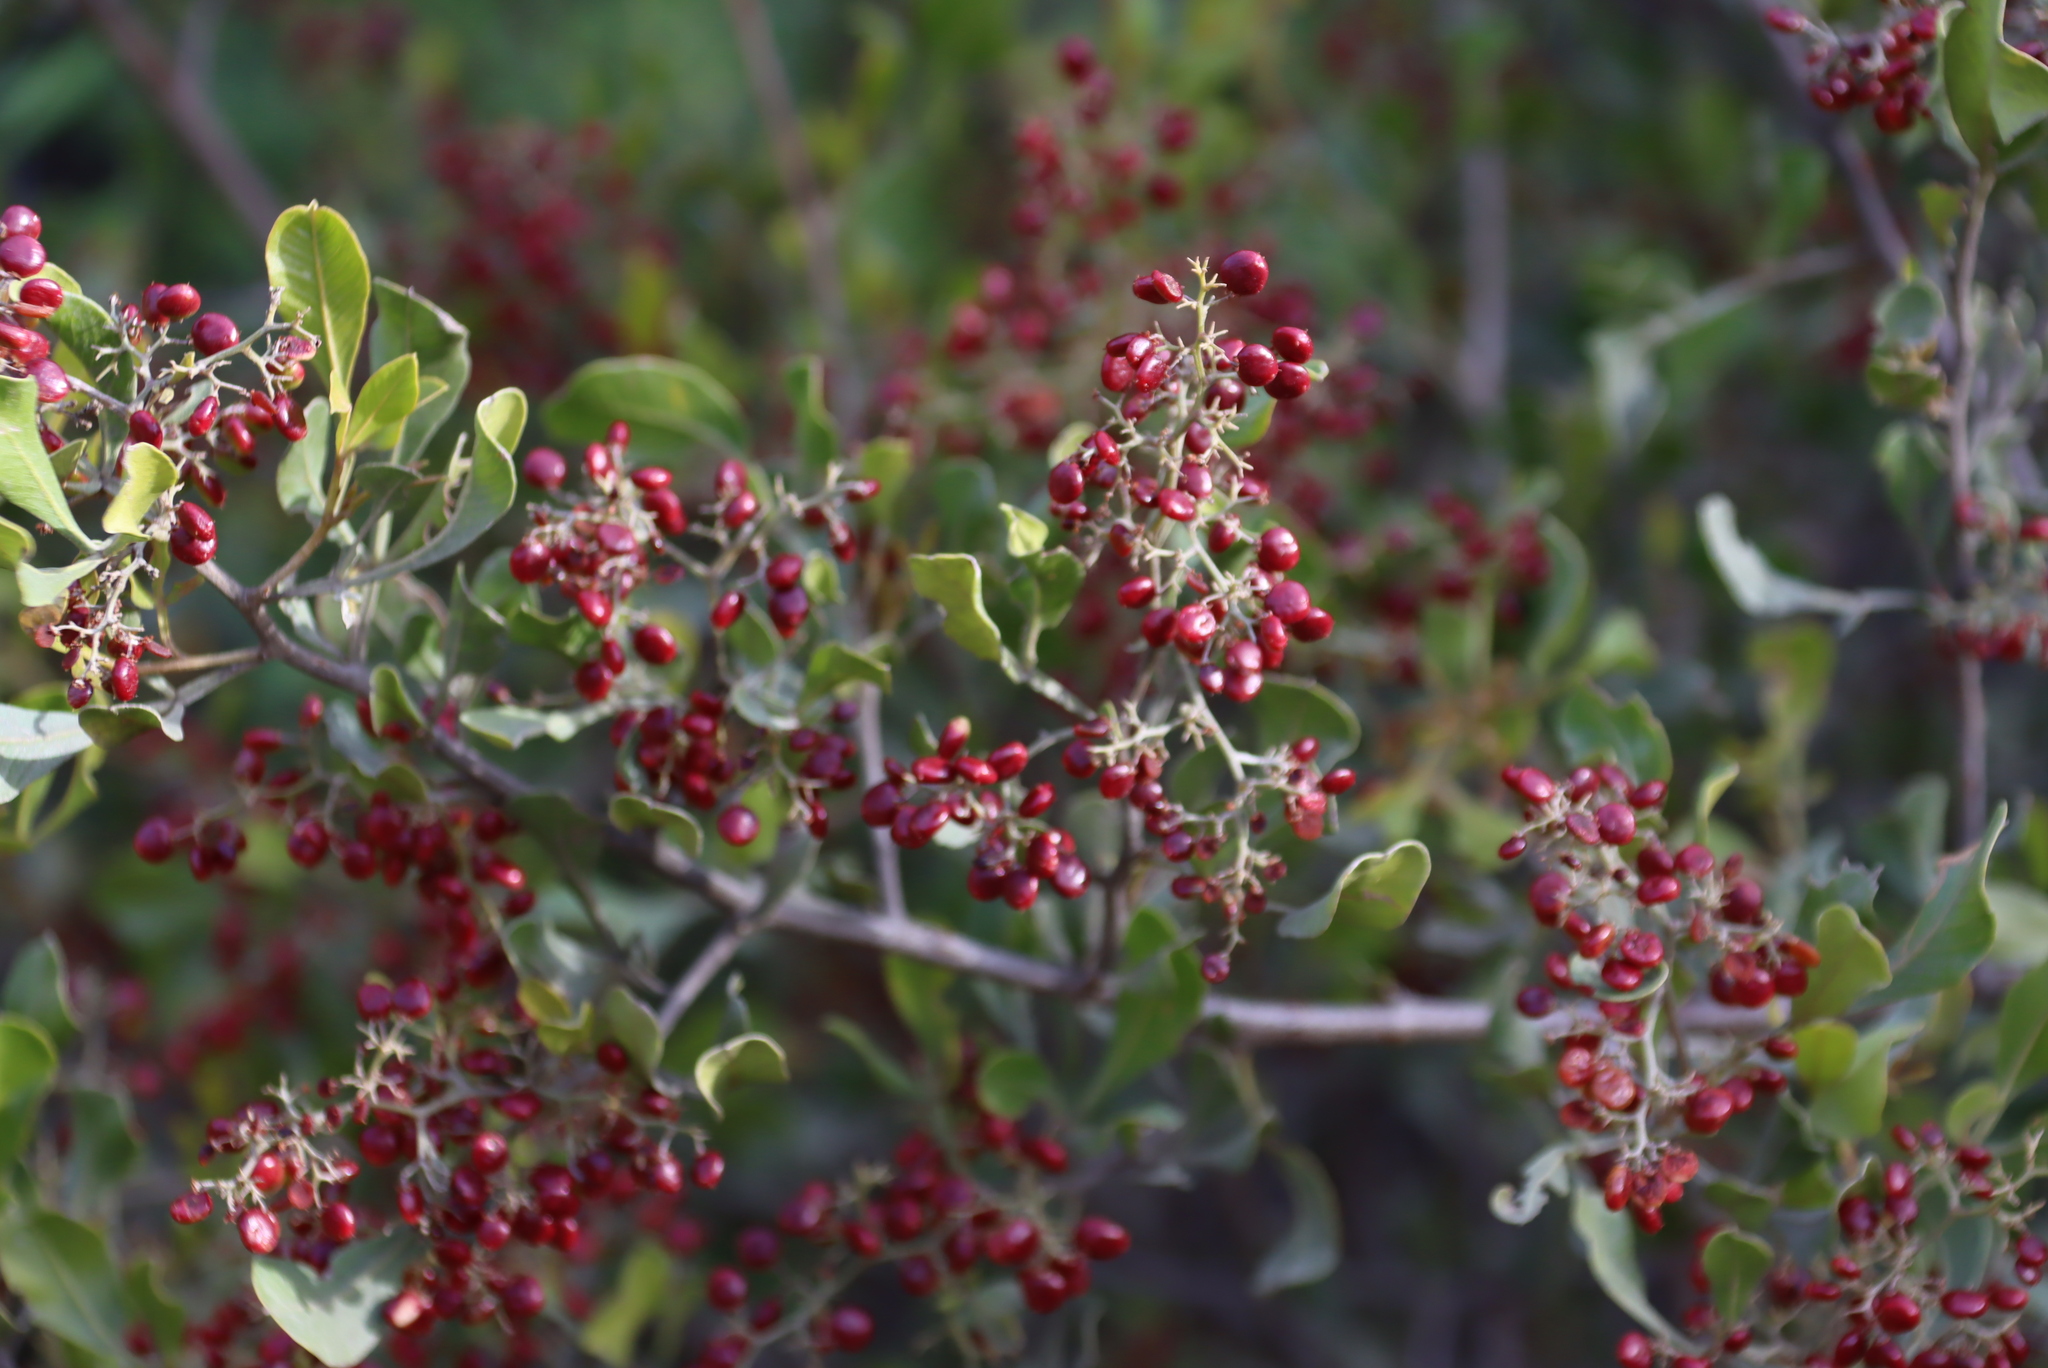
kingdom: Plantae
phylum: Tracheophyta
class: Magnoliopsida
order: Sapindales
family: Anacardiaceae
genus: Searsia
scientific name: Searsia pallens
